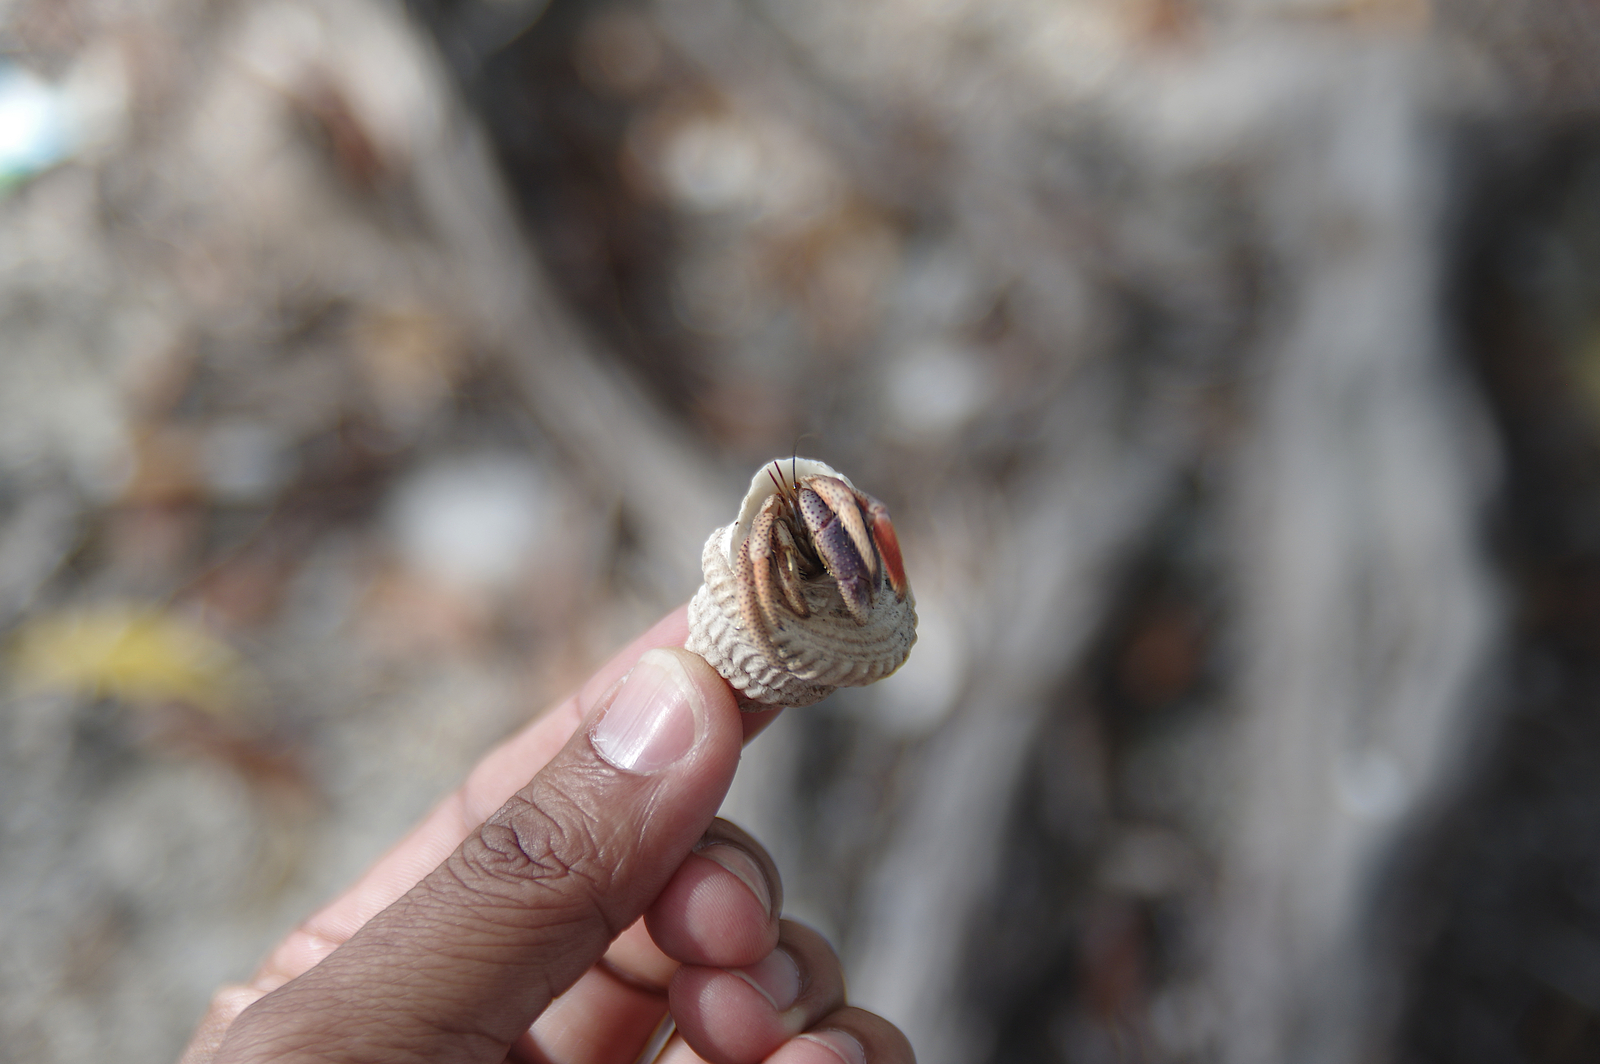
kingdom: Animalia
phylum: Arthropoda
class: Malacostraca
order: Decapoda
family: Coenobitidae
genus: Coenobita
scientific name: Coenobita clypeatus
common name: Caribbean hermit crab
